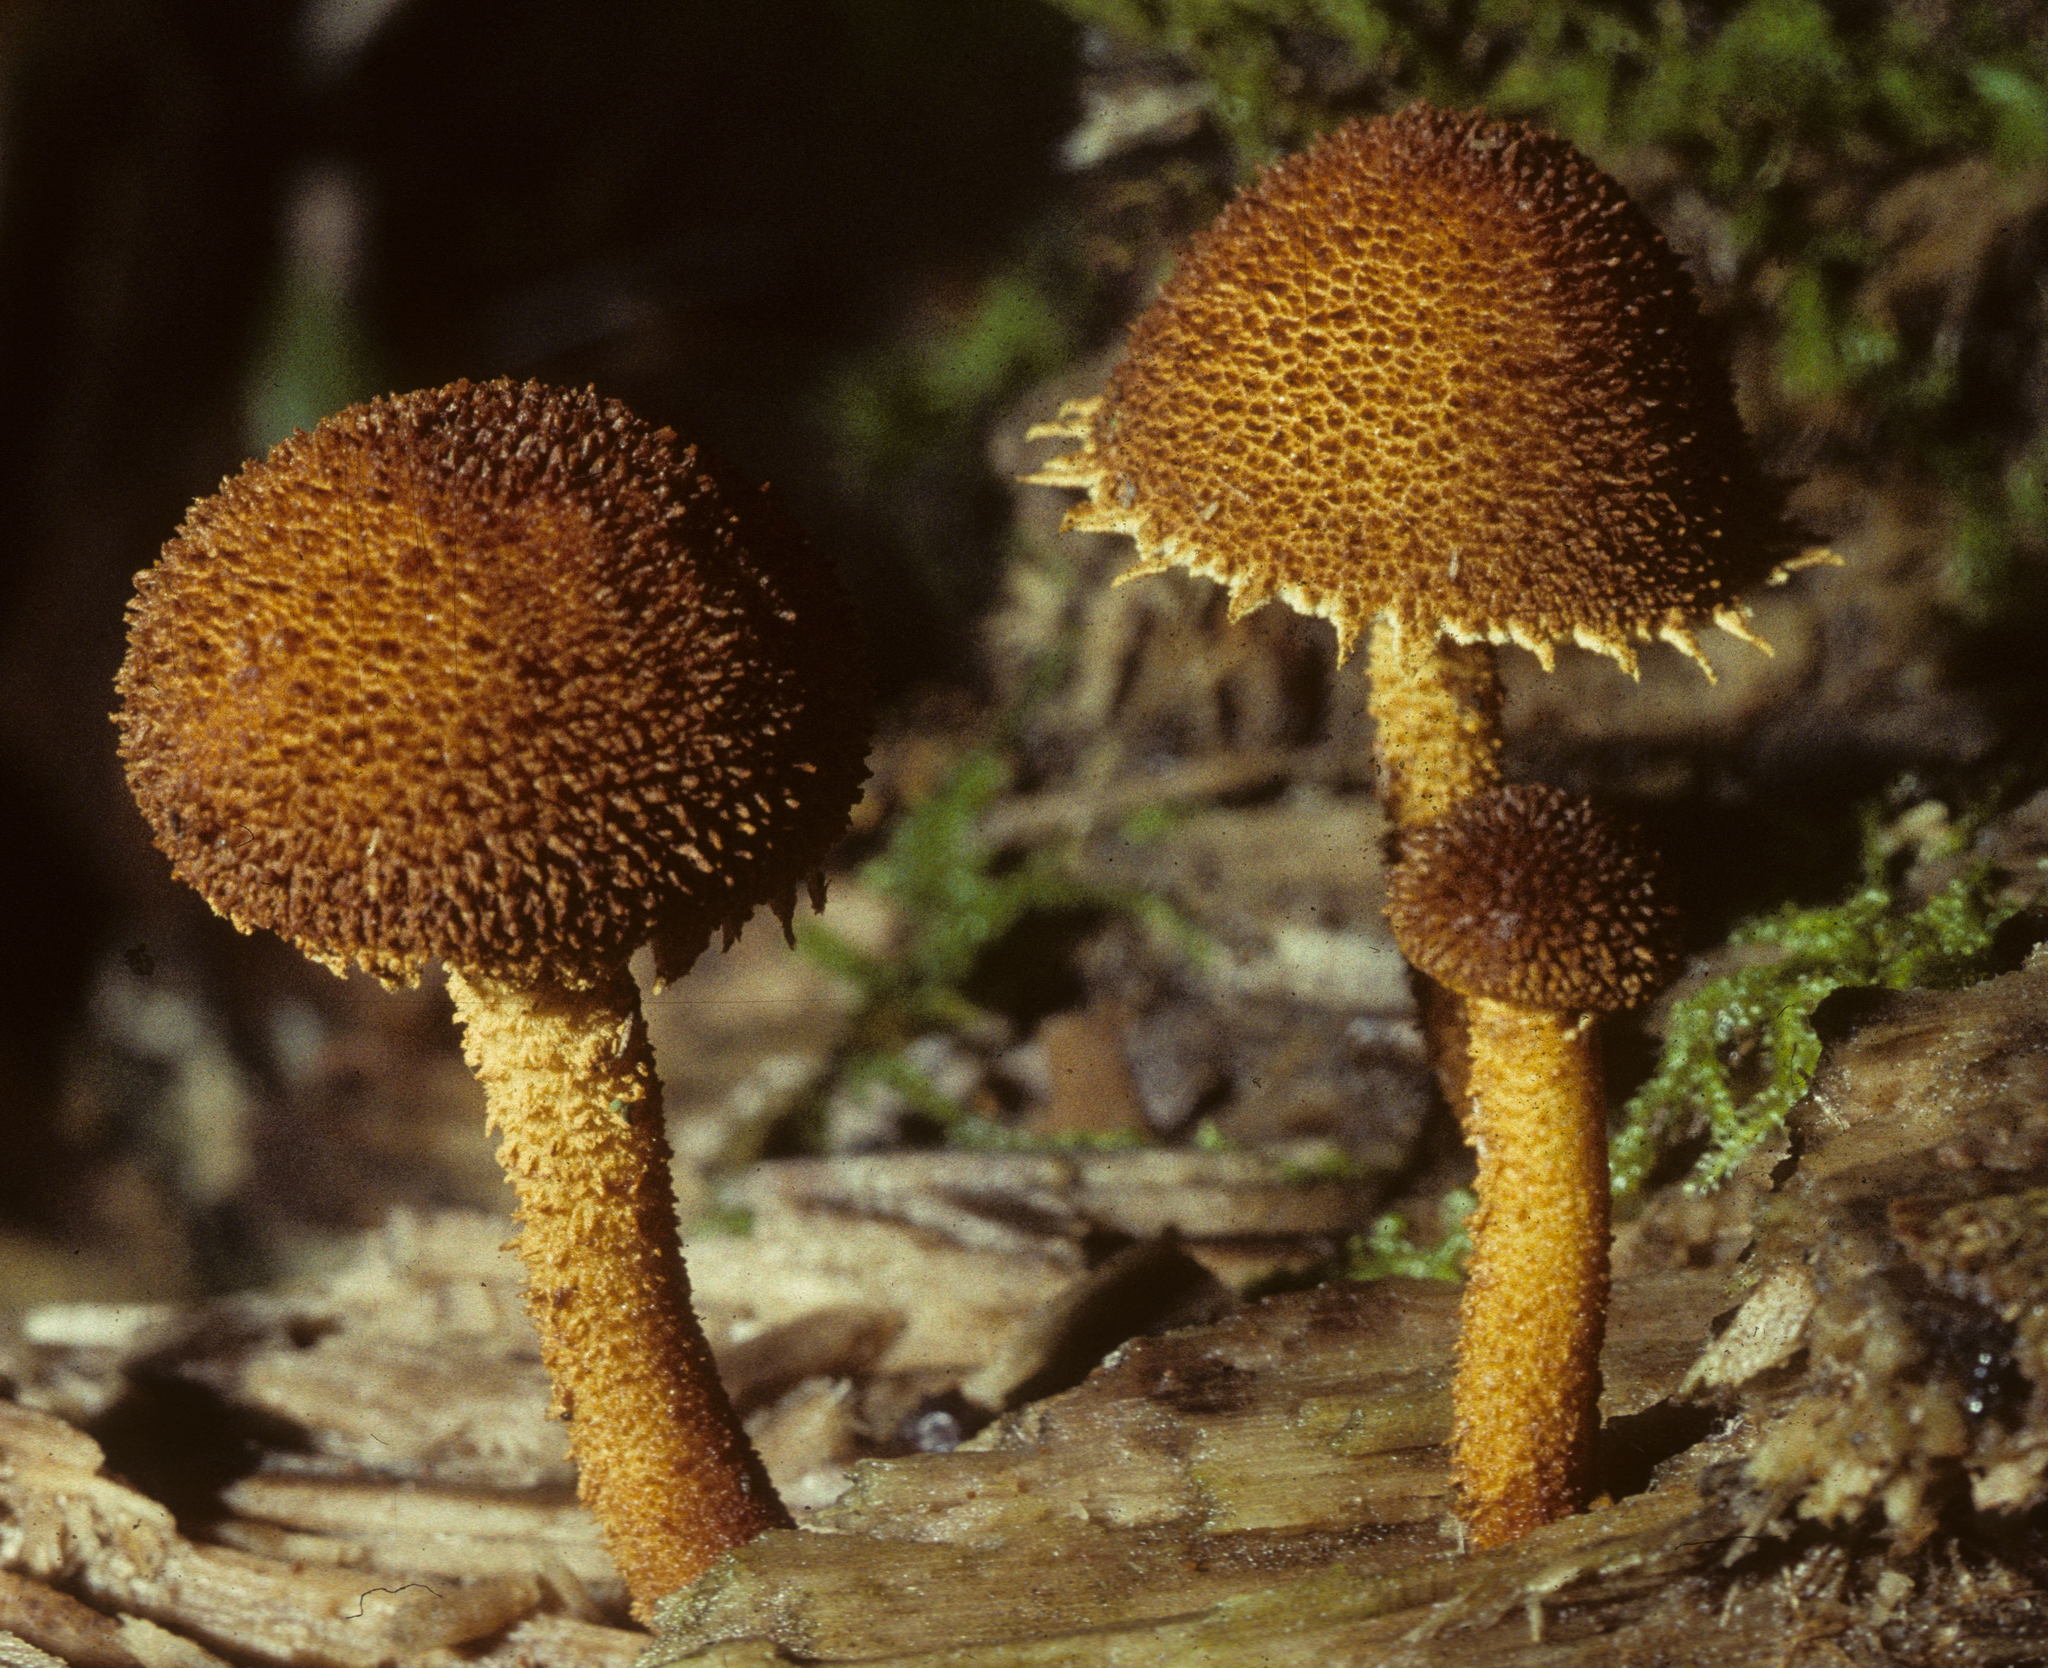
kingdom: Fungi
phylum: Basidiomycota
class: Agaricomycetes
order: Agaricales
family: Tubariaceae
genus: Flammulaster
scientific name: Flammulaster erinaceellus
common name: Powder-scale pholiota
